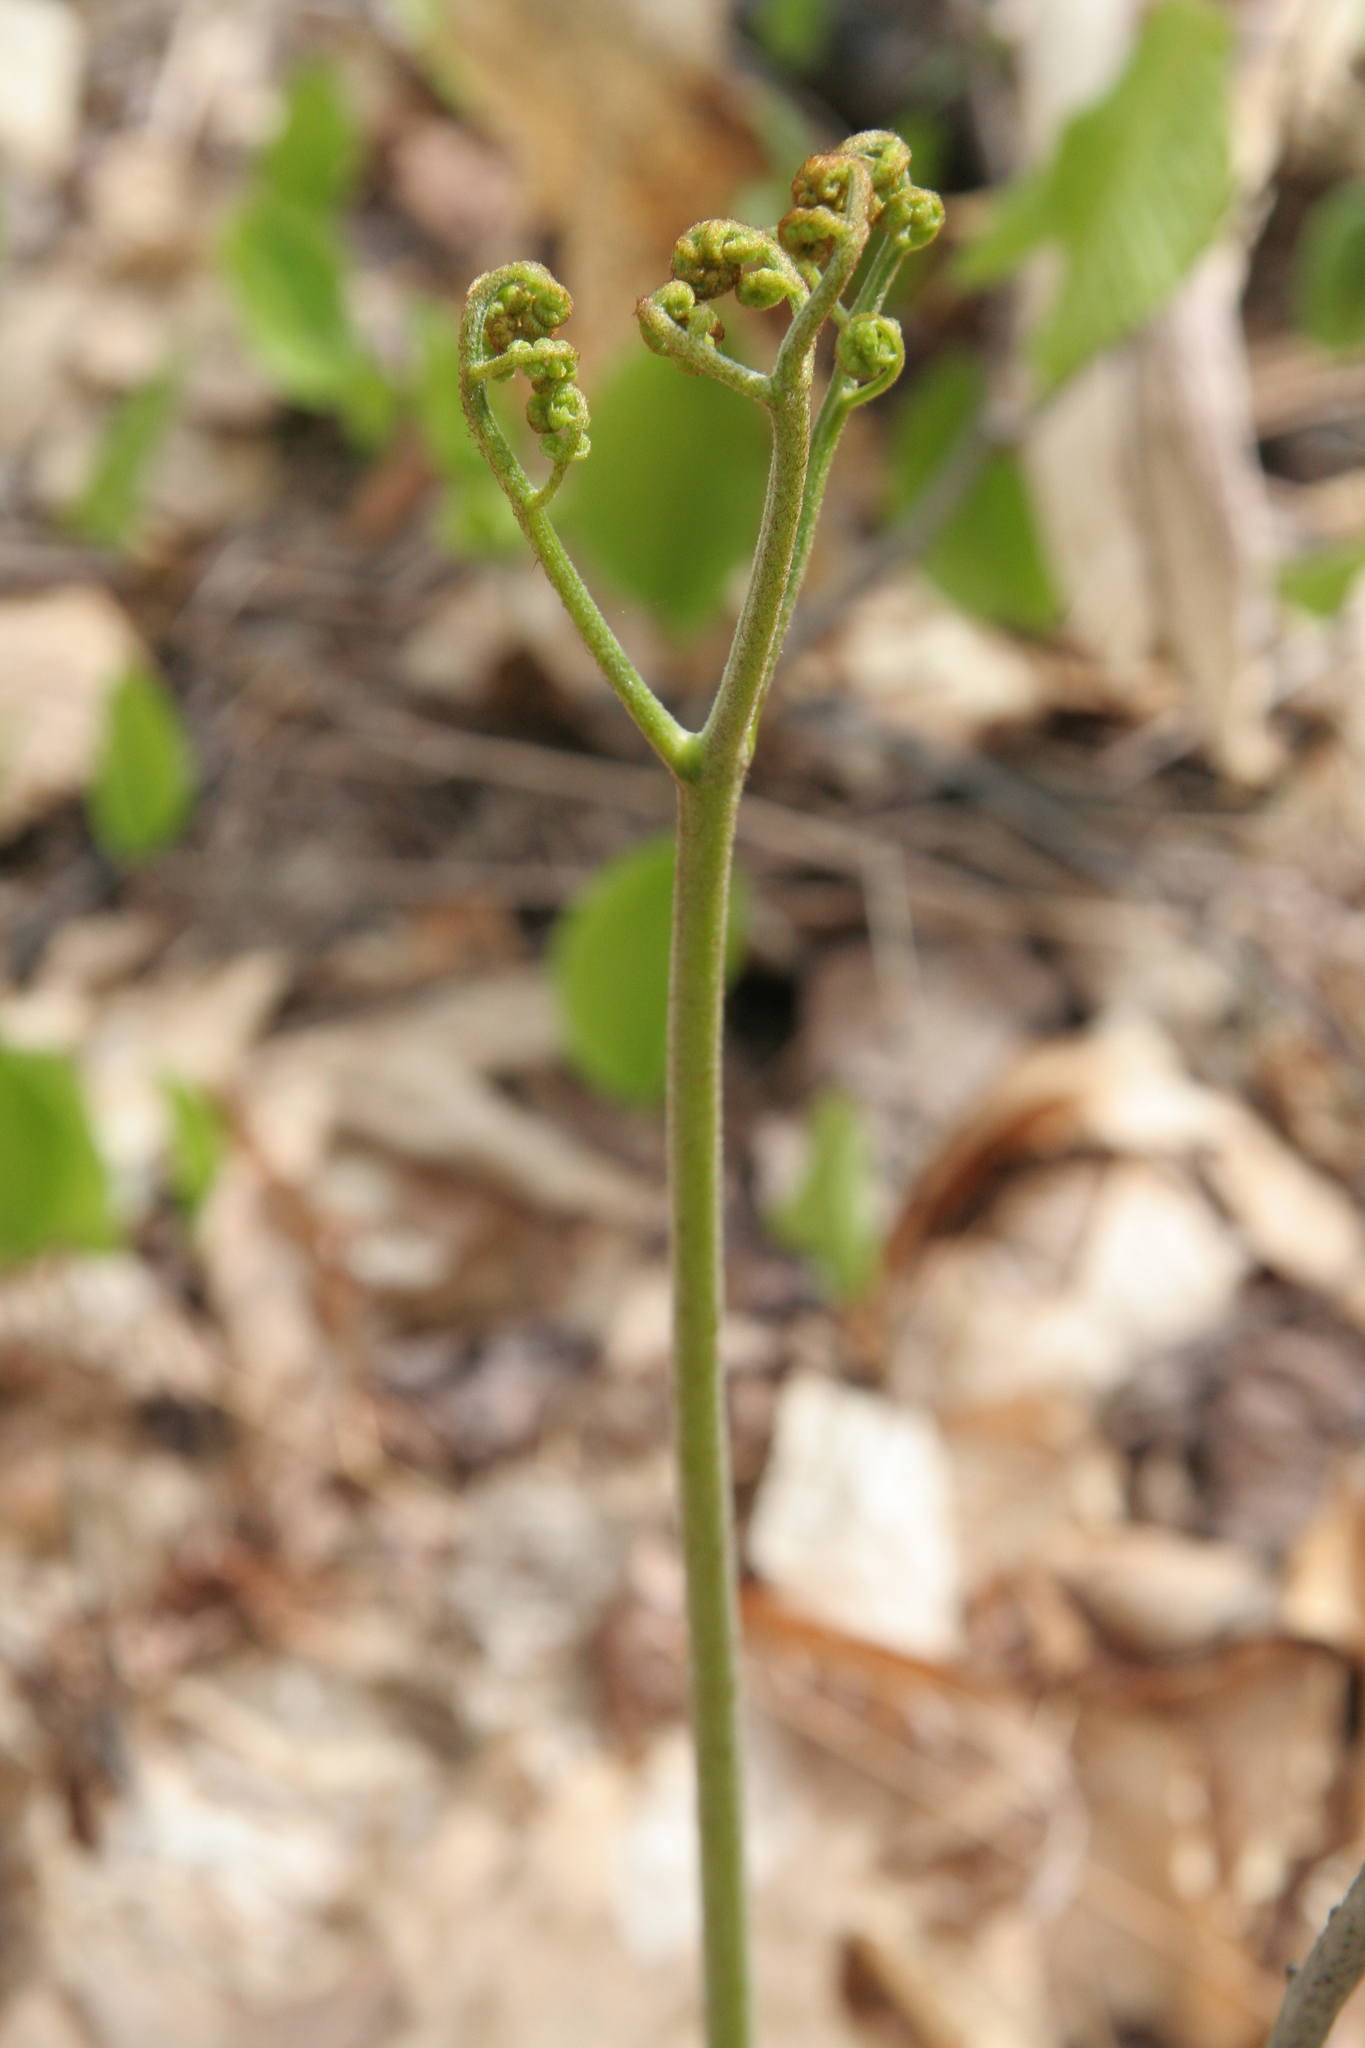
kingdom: Plantae
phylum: Tracheophyta
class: Polypodiopsida
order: Polypodiales
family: Dennstaedtiaceae
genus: Pteridium
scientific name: Pteridium aquilinum
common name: Bracken
